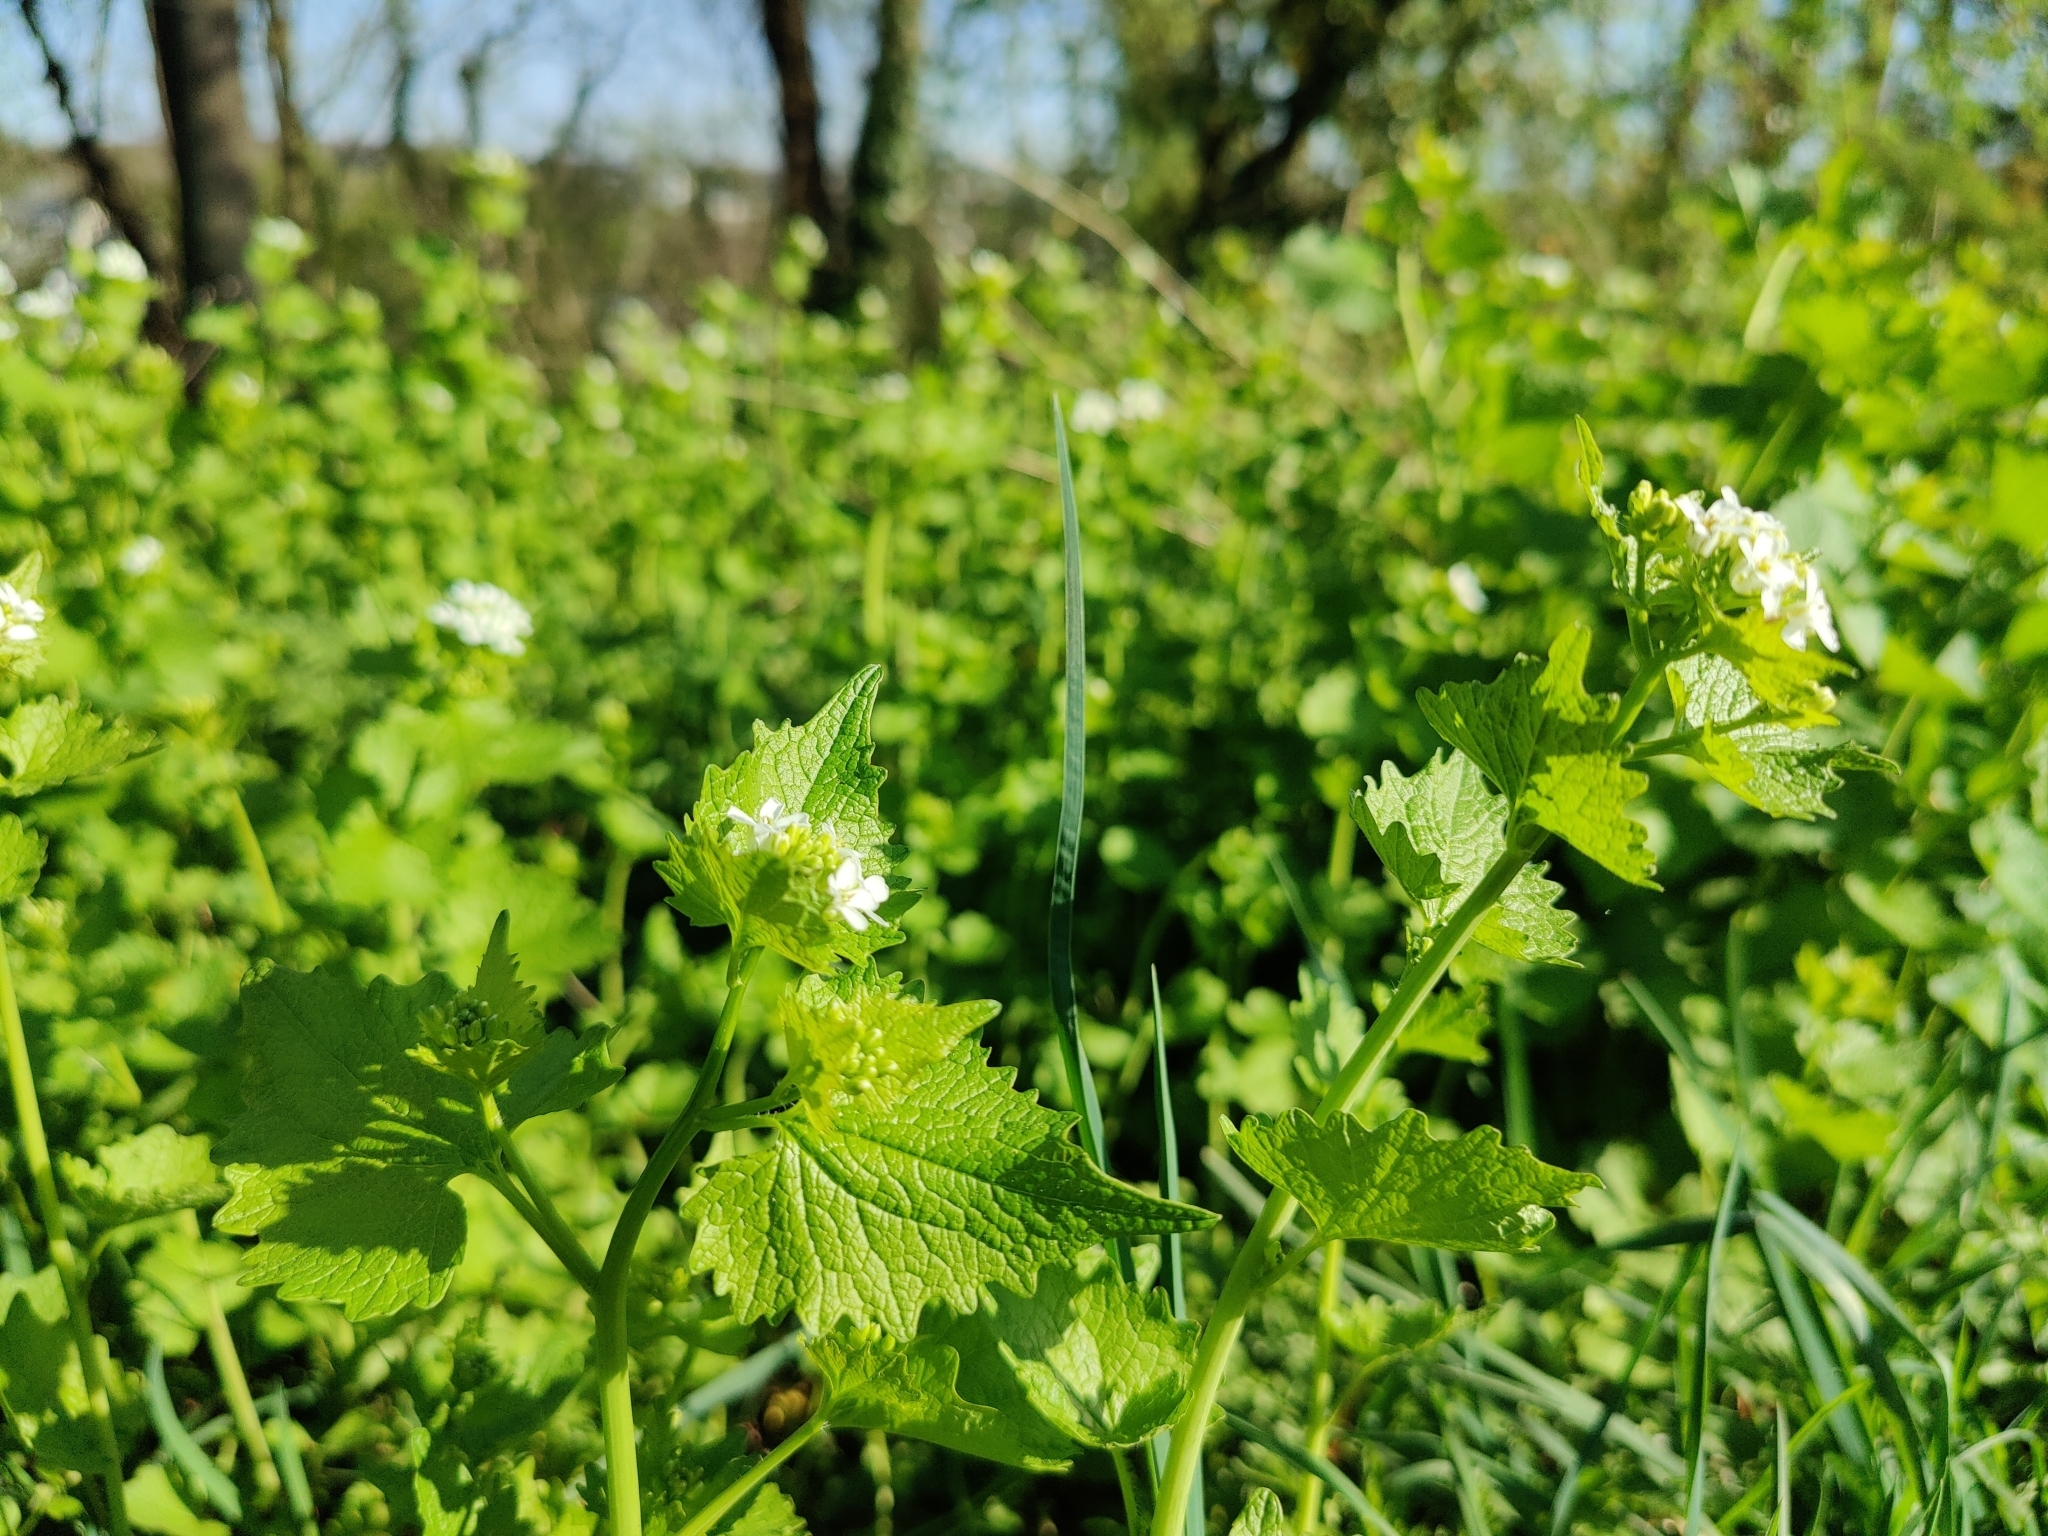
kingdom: Plantae
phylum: Tracheophyta
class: Magnoliopsida
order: Brassicales
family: Brassicaceae
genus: Alliaria
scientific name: Alliaria petiolata
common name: Garlic mustard
